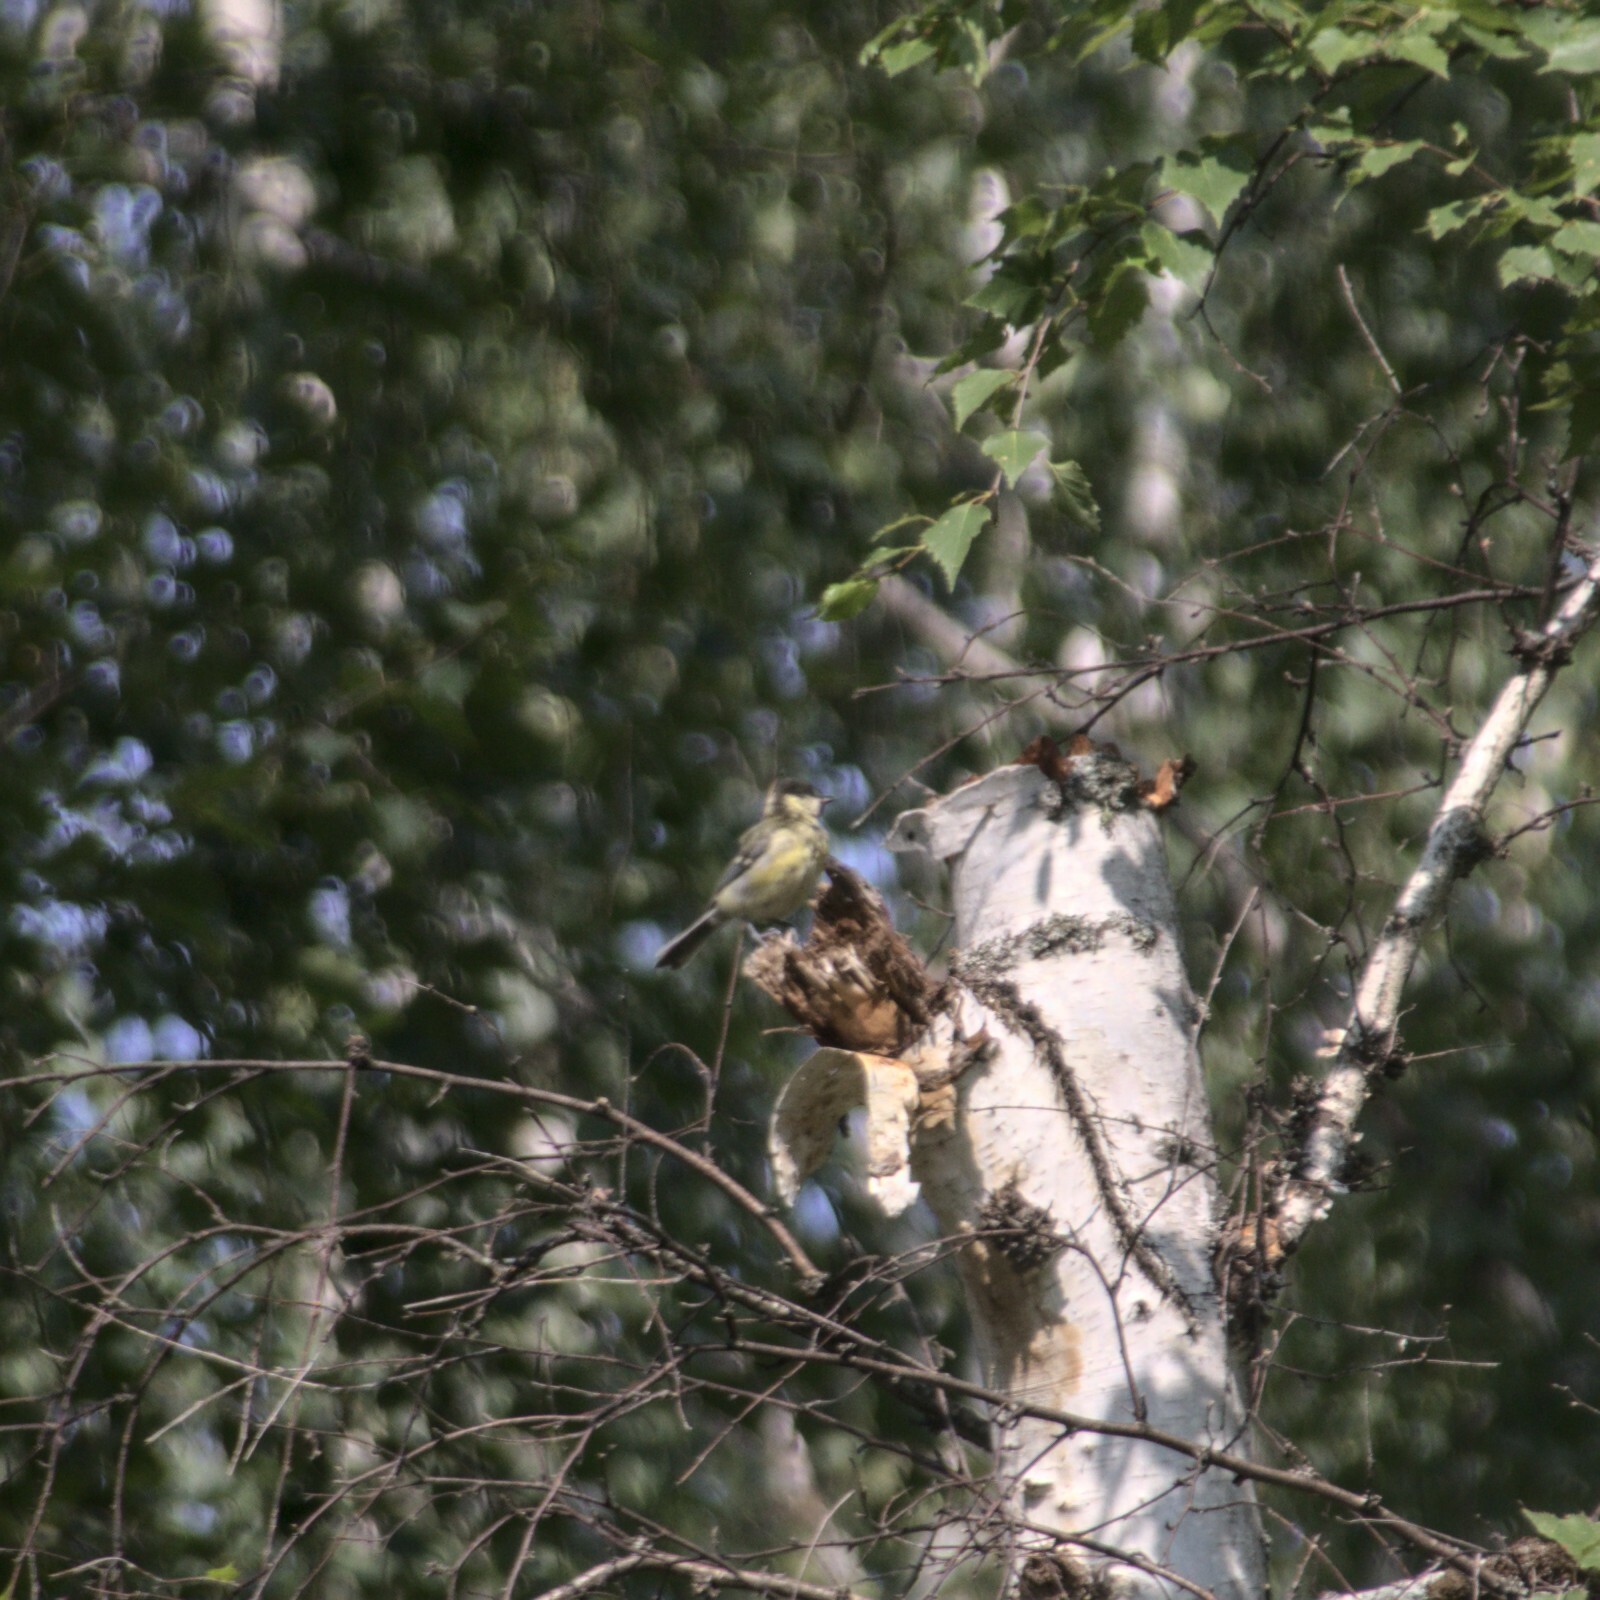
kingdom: Animalia
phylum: Chordata
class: Aves
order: Passeriformes
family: Paridae
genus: Parus
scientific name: Parus major
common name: Great tit
